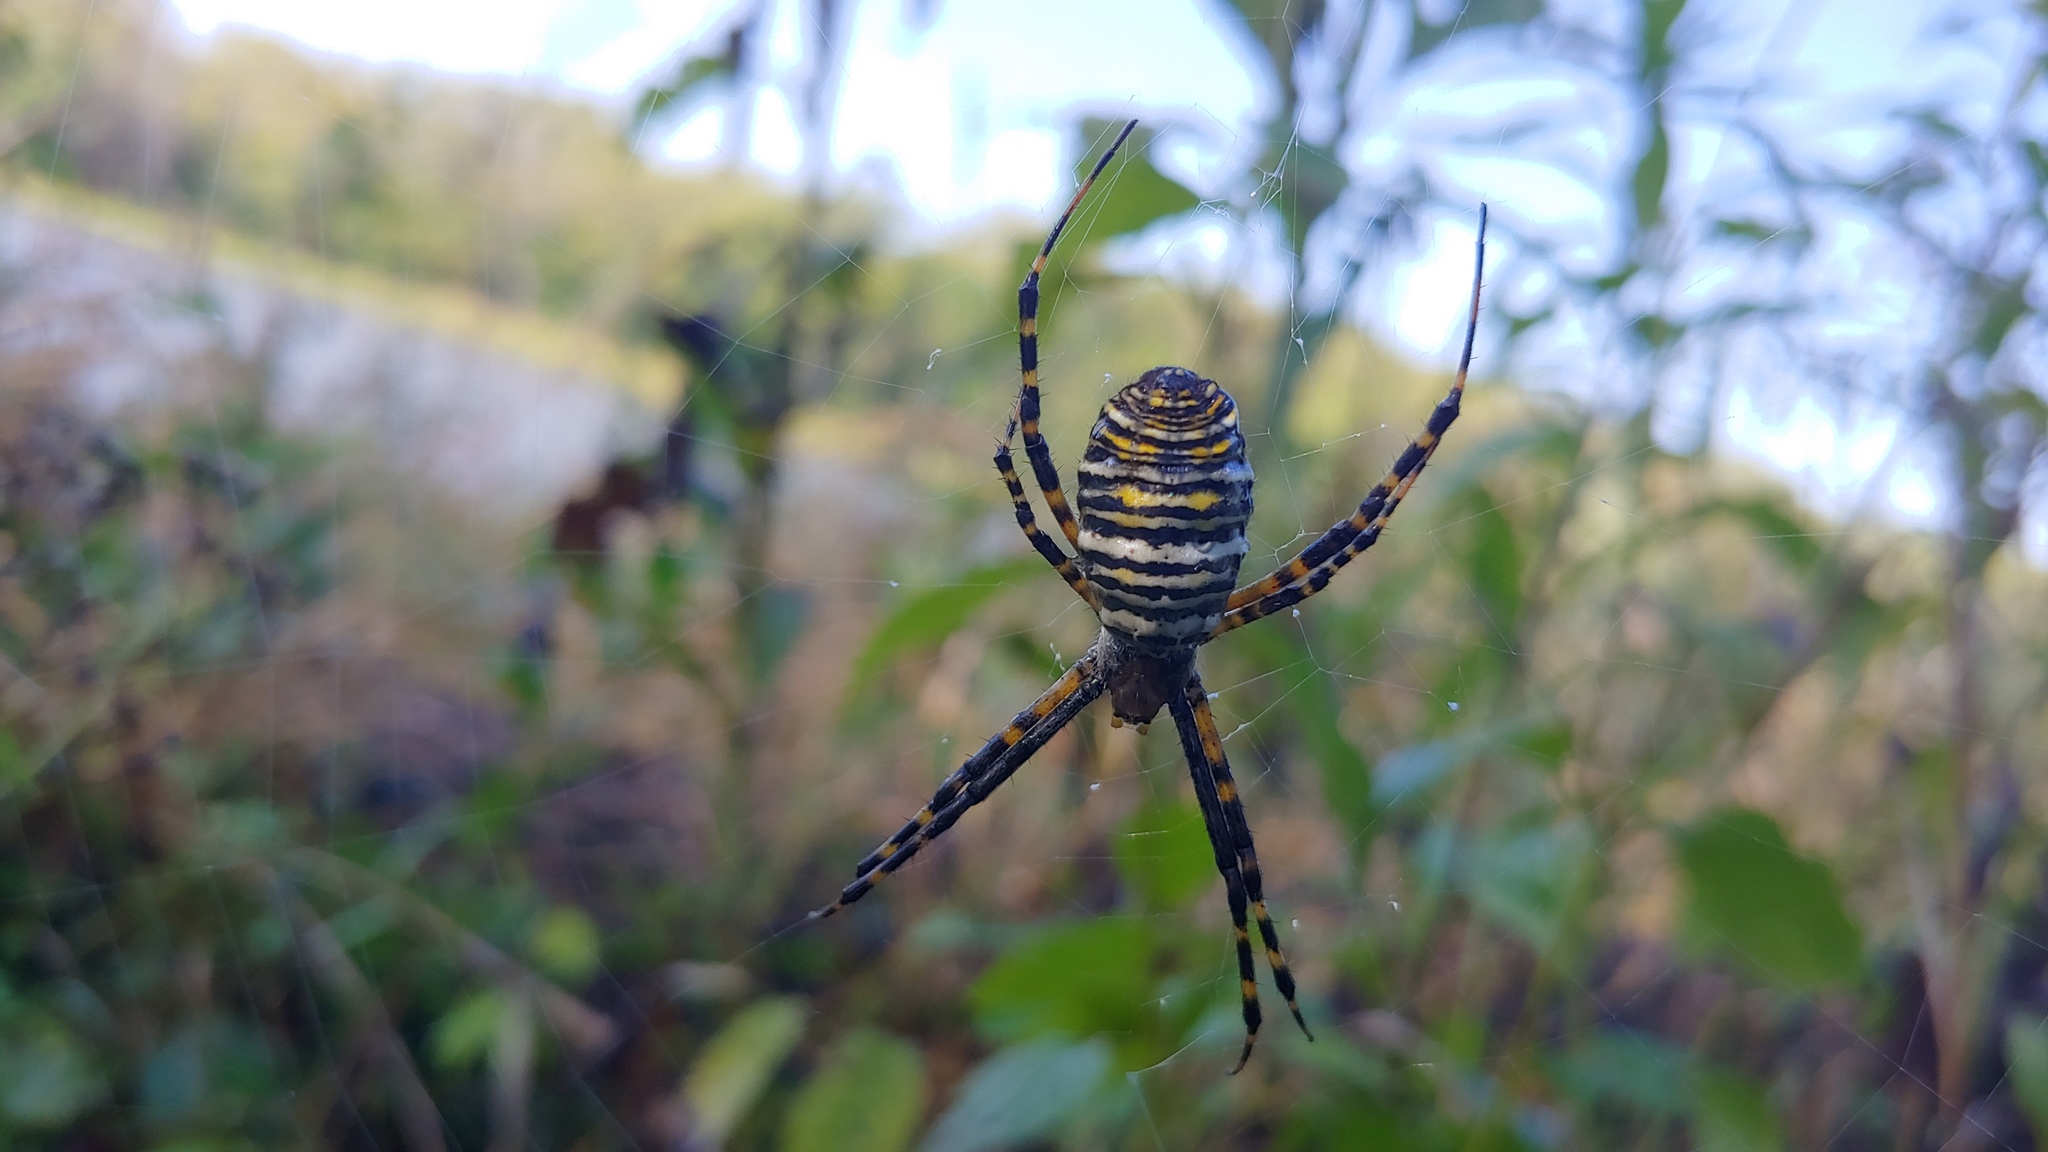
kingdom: Animalia
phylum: Arthropoda
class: Arachnida
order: Araneae
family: Araneidae
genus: Argiope
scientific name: Argiope trifasciata
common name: Banded garden spider
